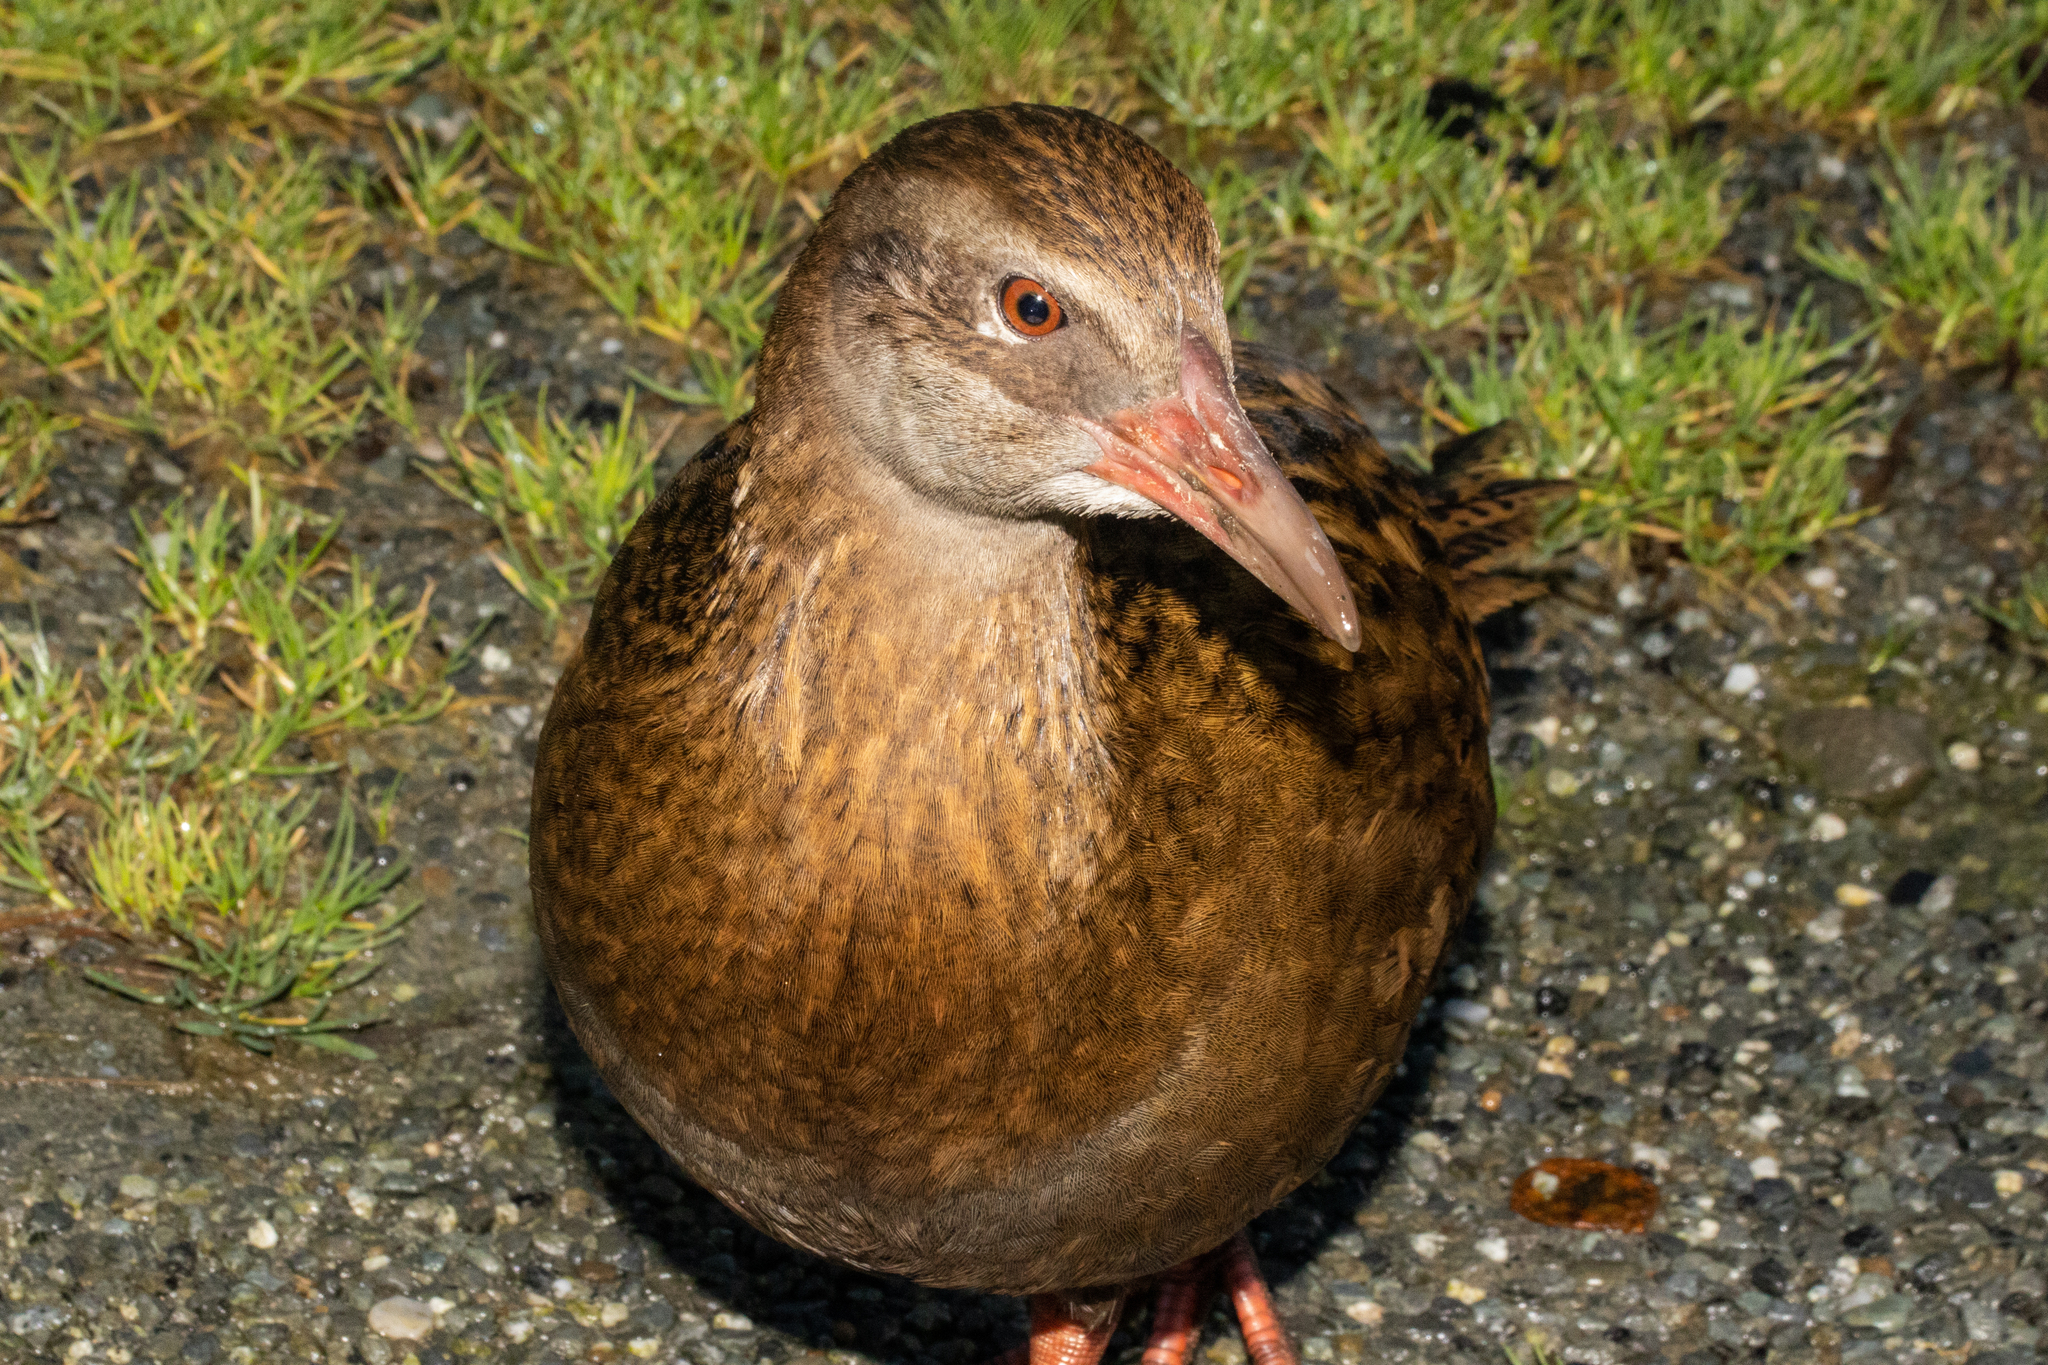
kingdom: Animalia
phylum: Chordata
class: Aves
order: Gruiformes
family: Rallidae
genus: Gallirallus
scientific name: Gallirallus australis
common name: Weka
